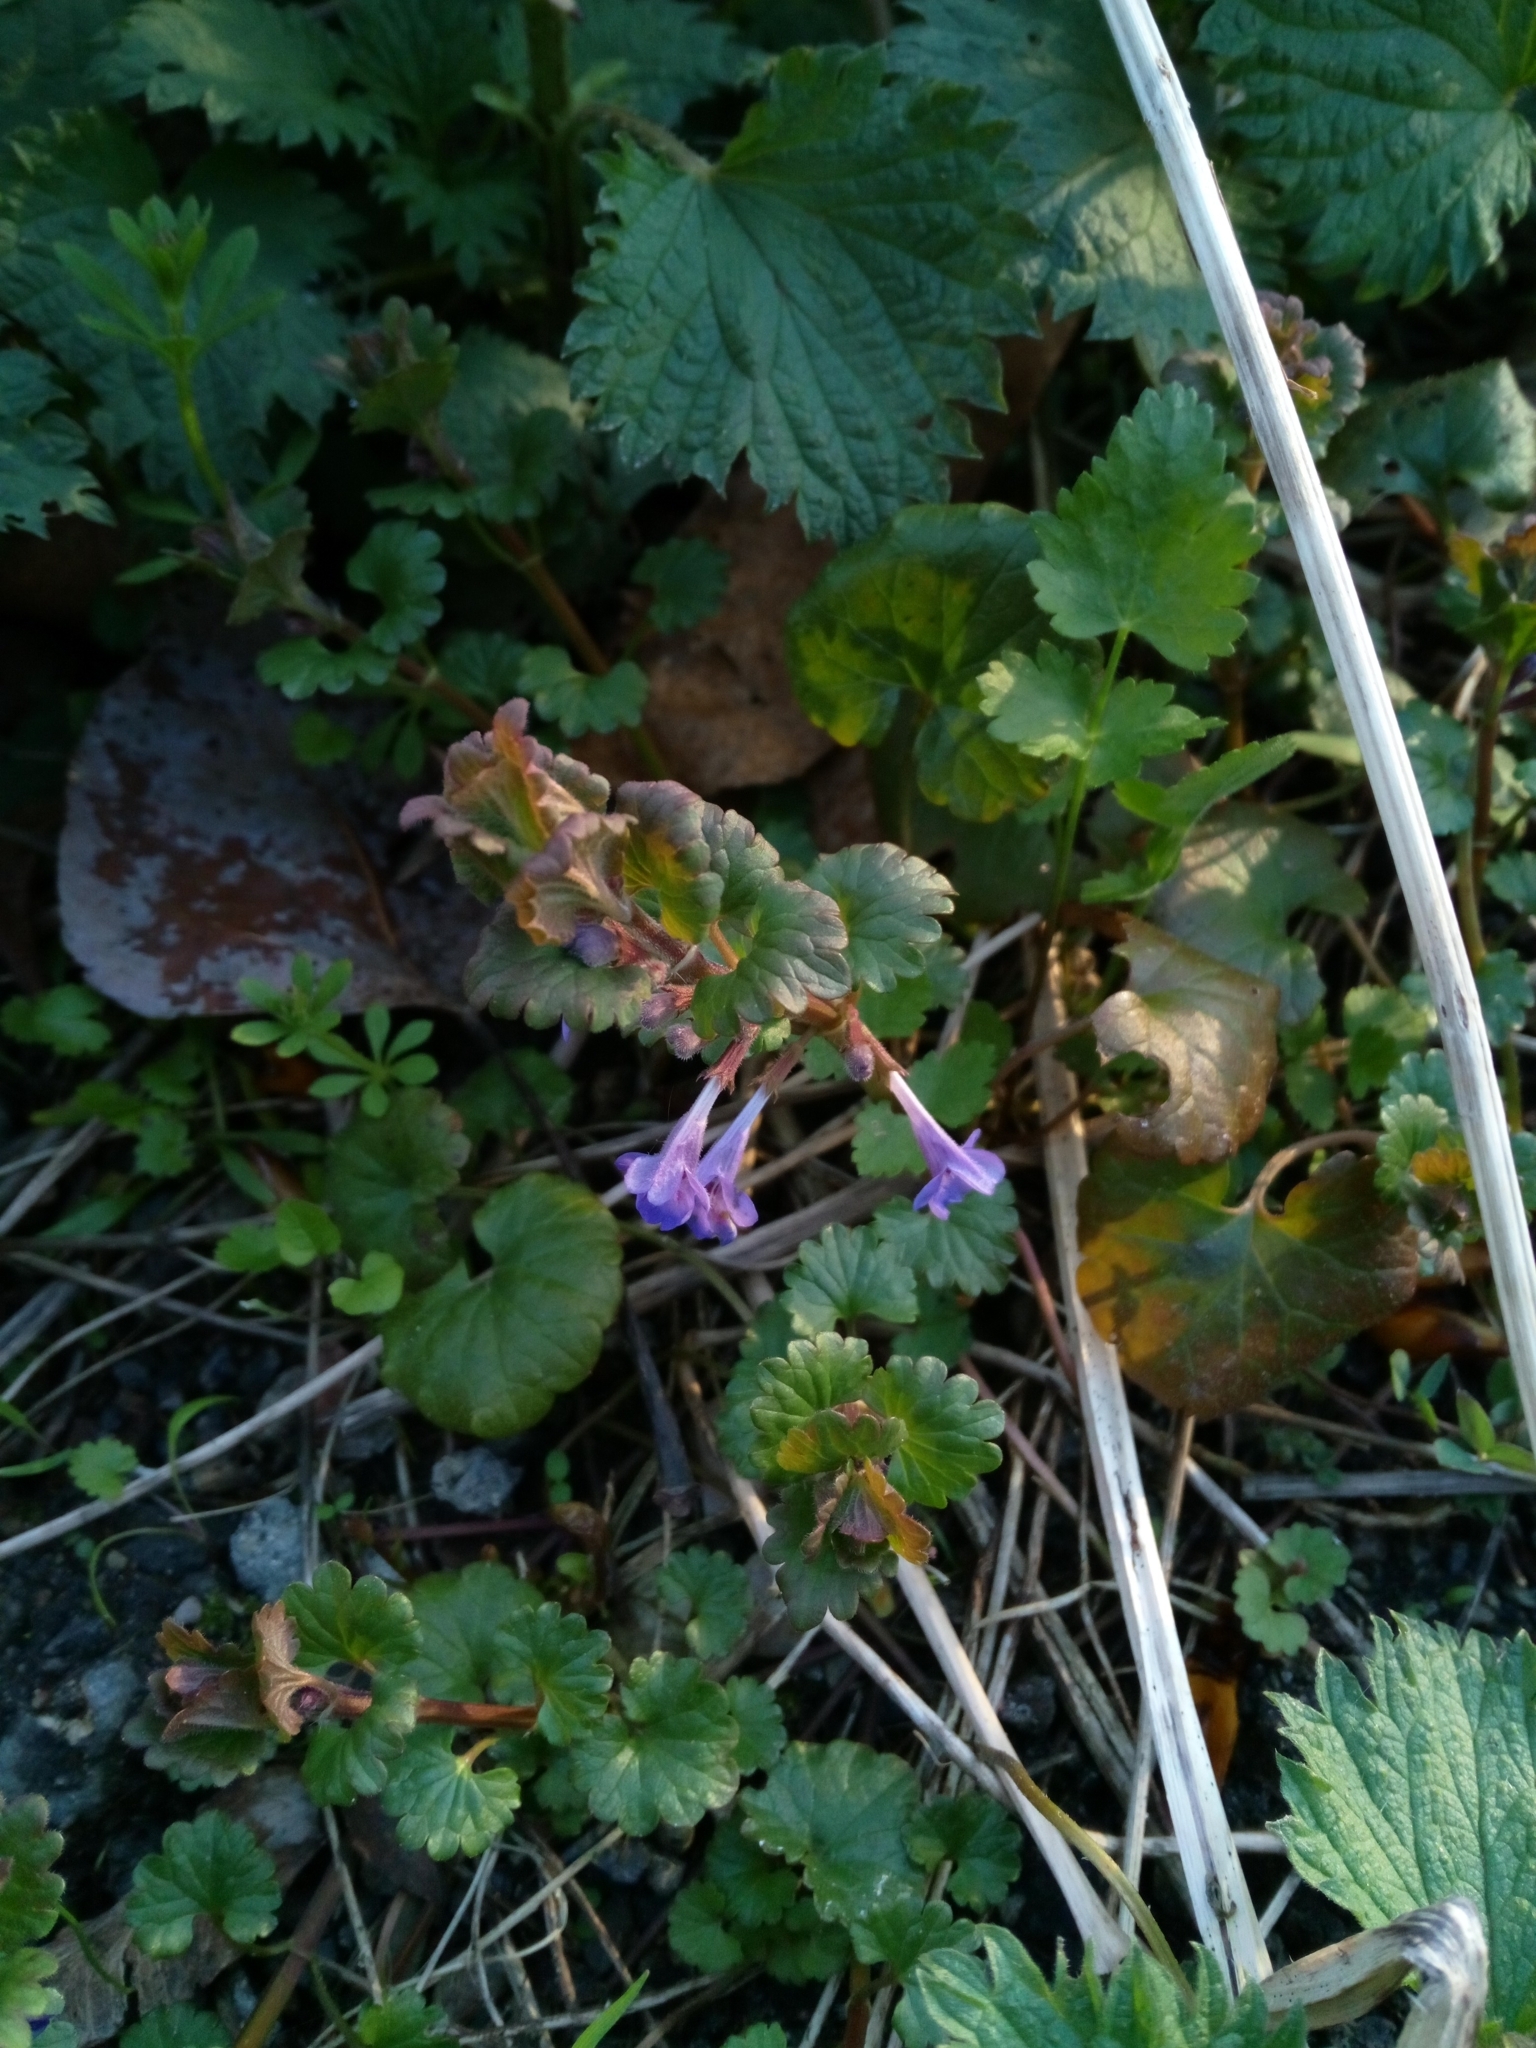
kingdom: Plantae
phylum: Tracheophyta
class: Magnoliopsida
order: Lamiales
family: Lamiaceae
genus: Glechoma
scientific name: Glechoma hederacea
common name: Ground ivy
